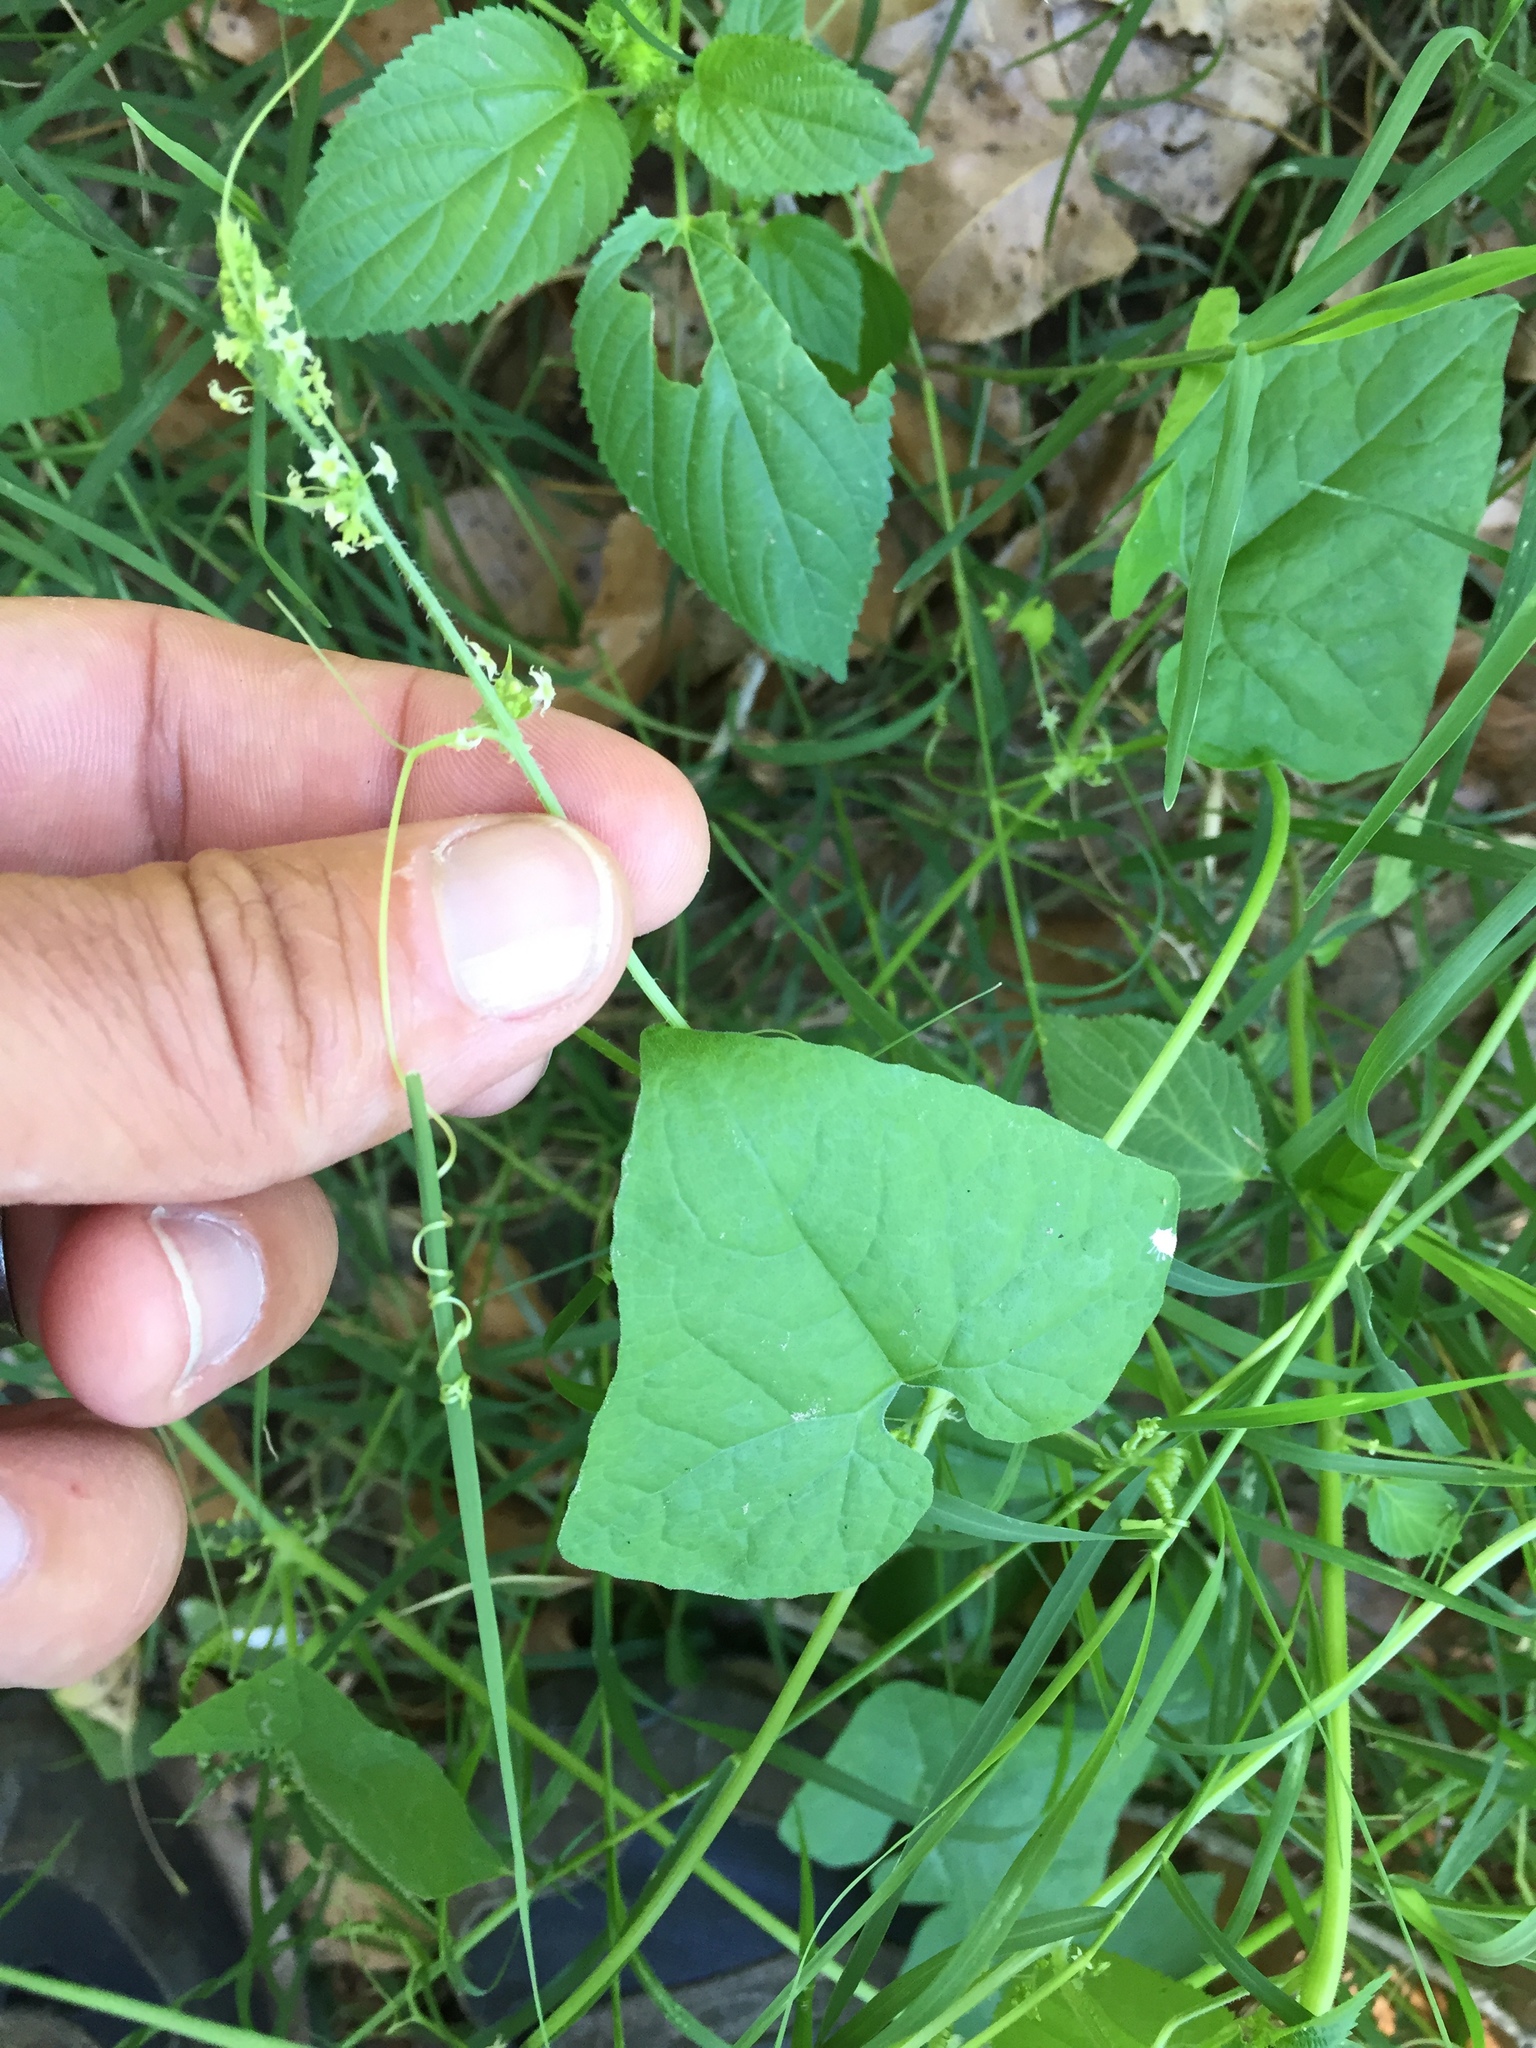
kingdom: Plantae
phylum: Tracheophyta
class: Magnoliopsida
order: Cucurbitales
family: Cucurbitaceae
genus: Sicyosperma
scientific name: Sicyosperma gracile
